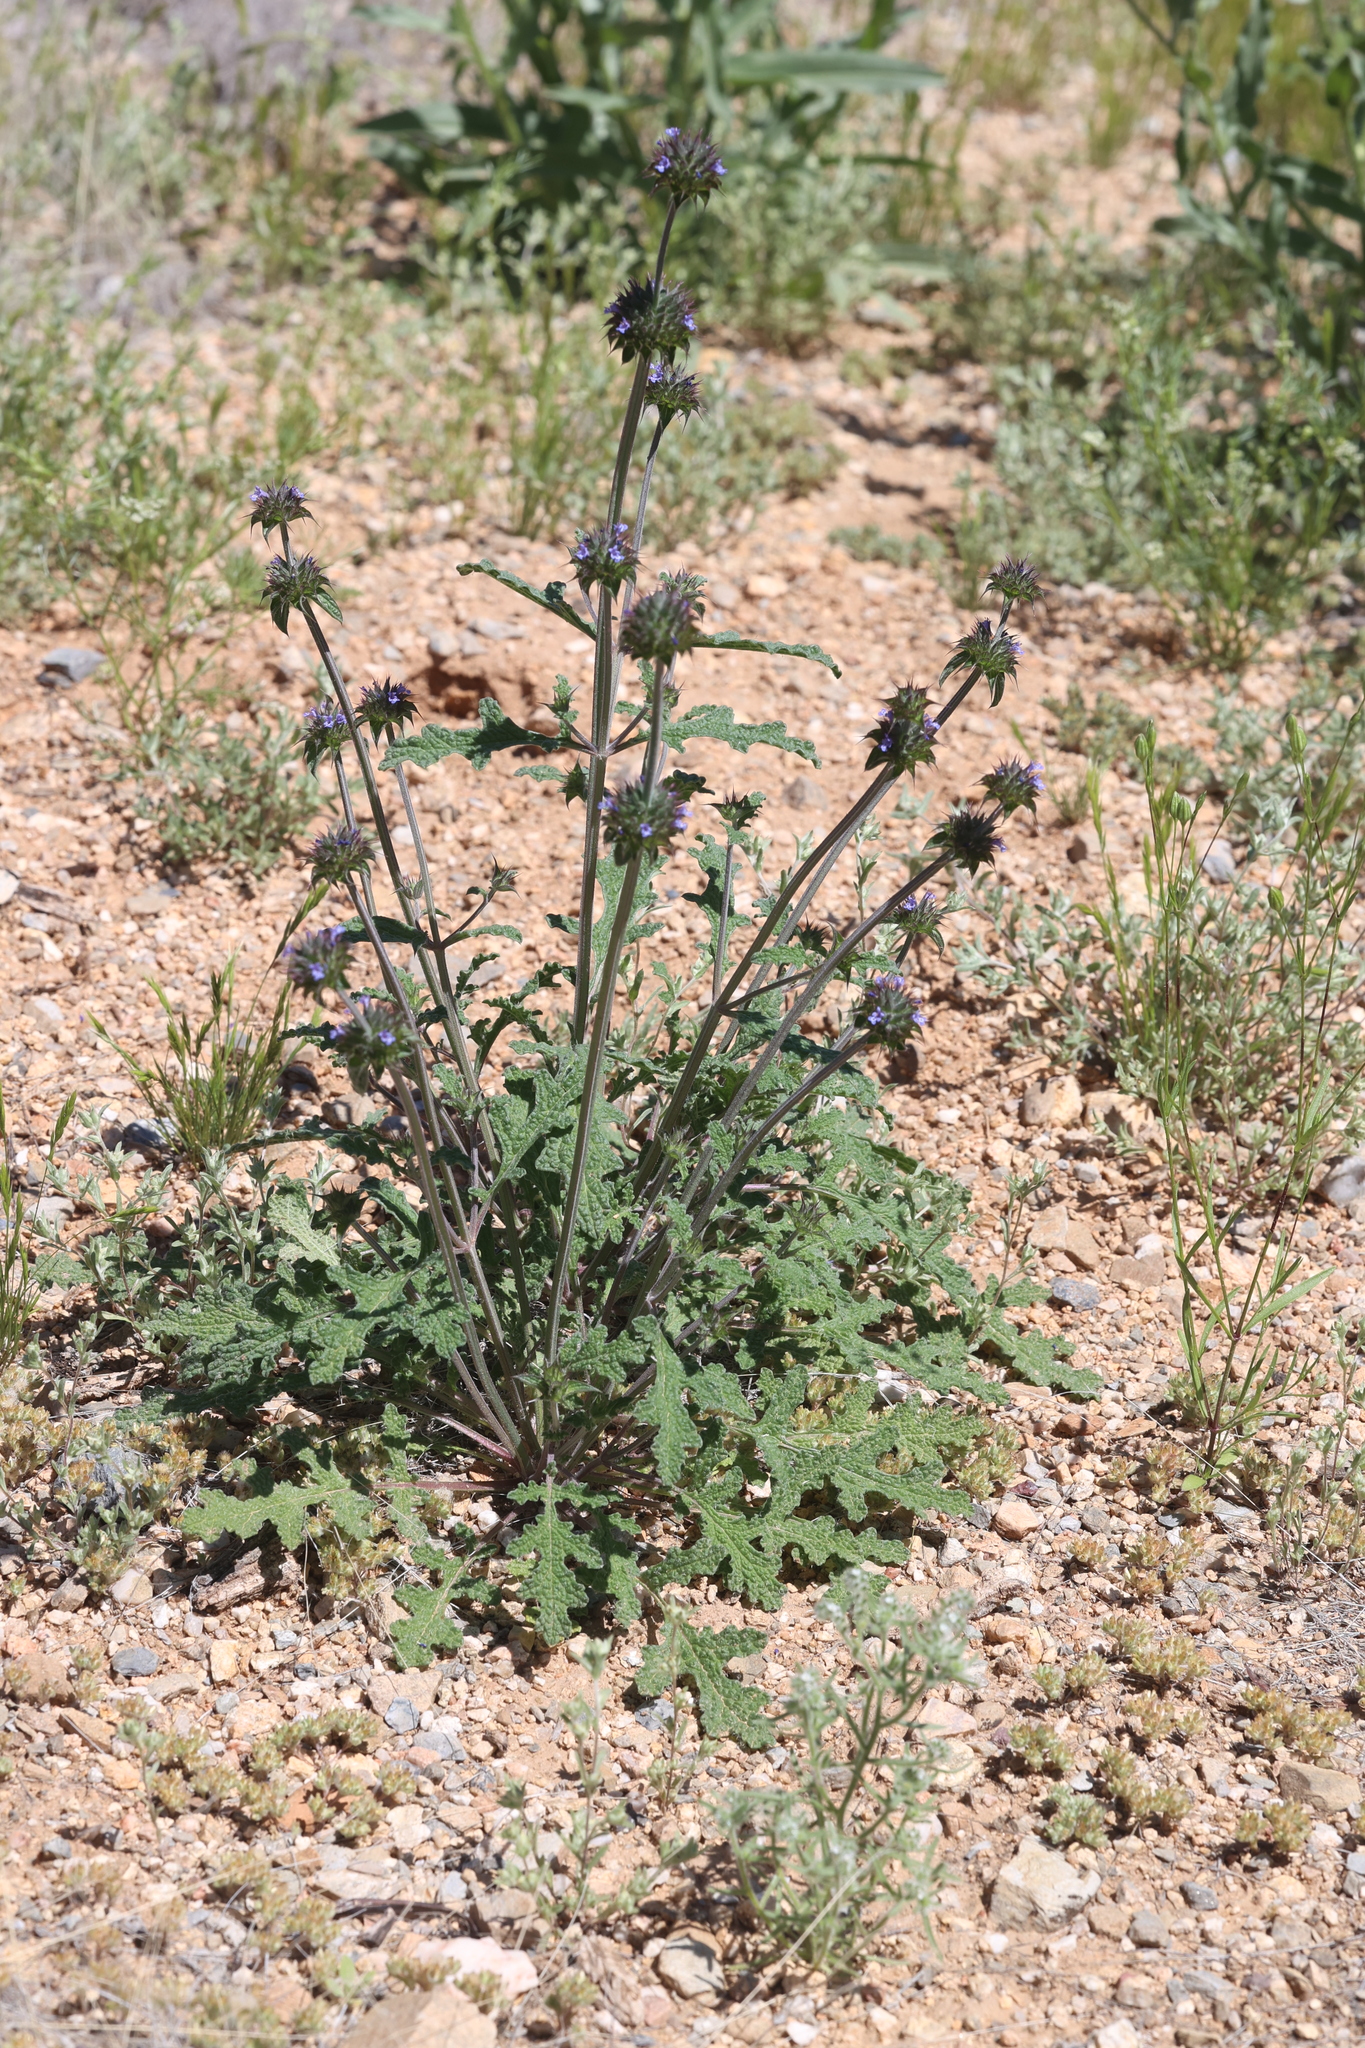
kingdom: Plantae
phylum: Tracheophyta
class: Magnoliopsida
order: Lamiales
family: Lamiaceae
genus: Salvia
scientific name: Salvia columbariae
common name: Chia
